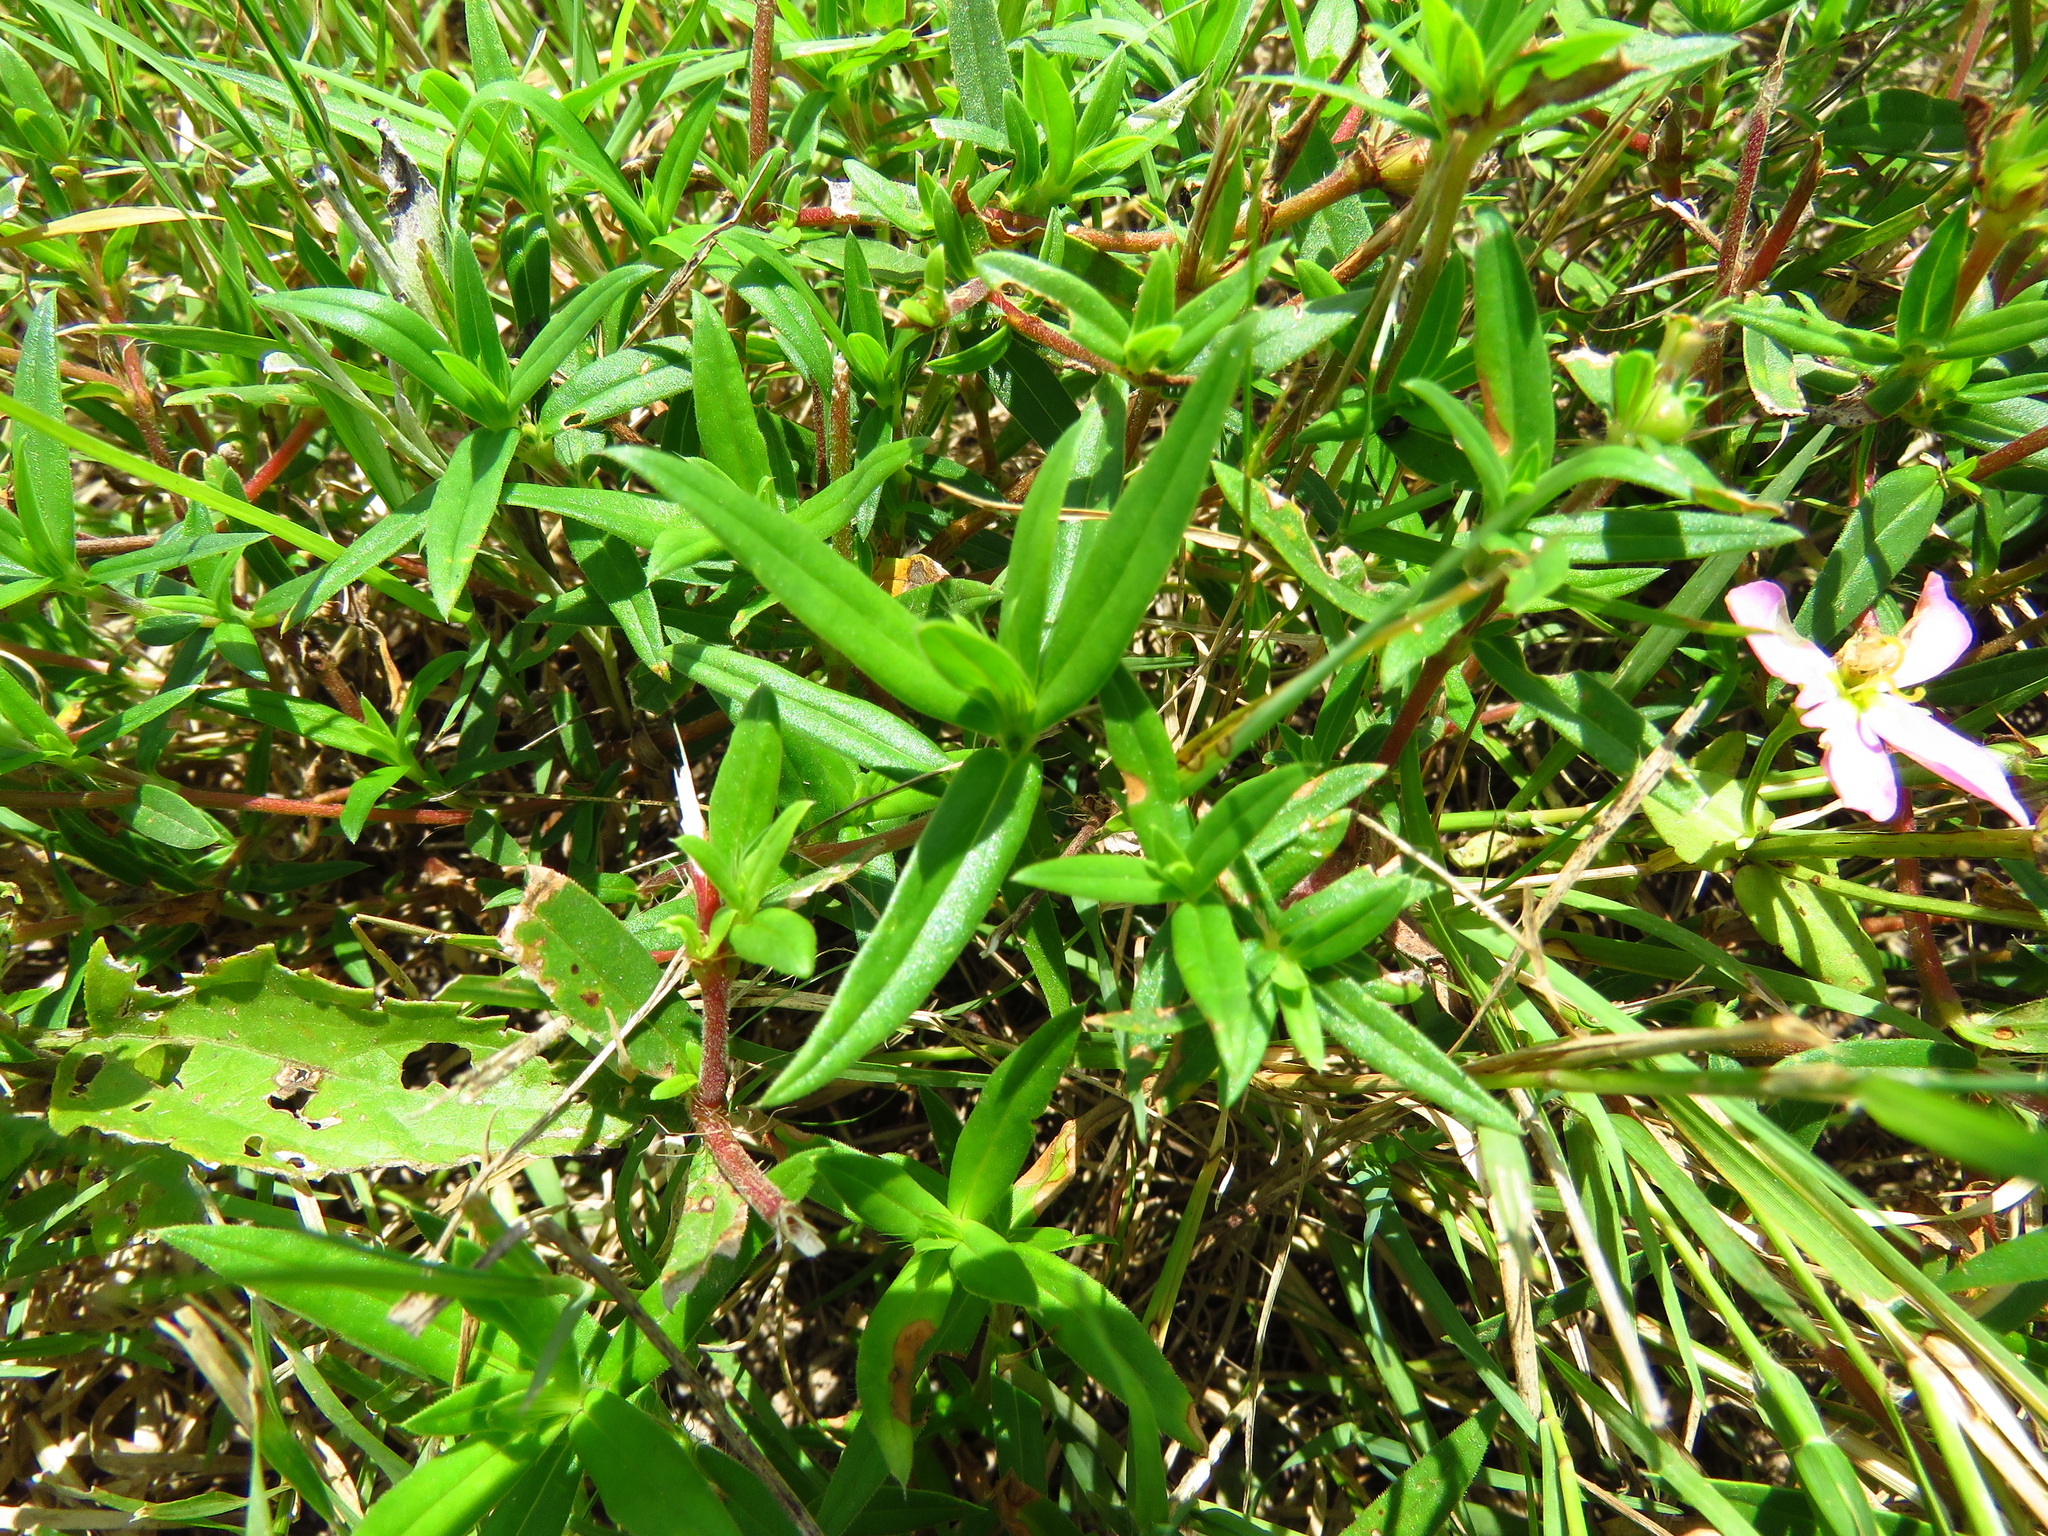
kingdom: Plantae
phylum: Tracheophyta
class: Magnoliopsida
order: Gentianales
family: Gentianaceae
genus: Sabatia
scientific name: Sabatia campestris
